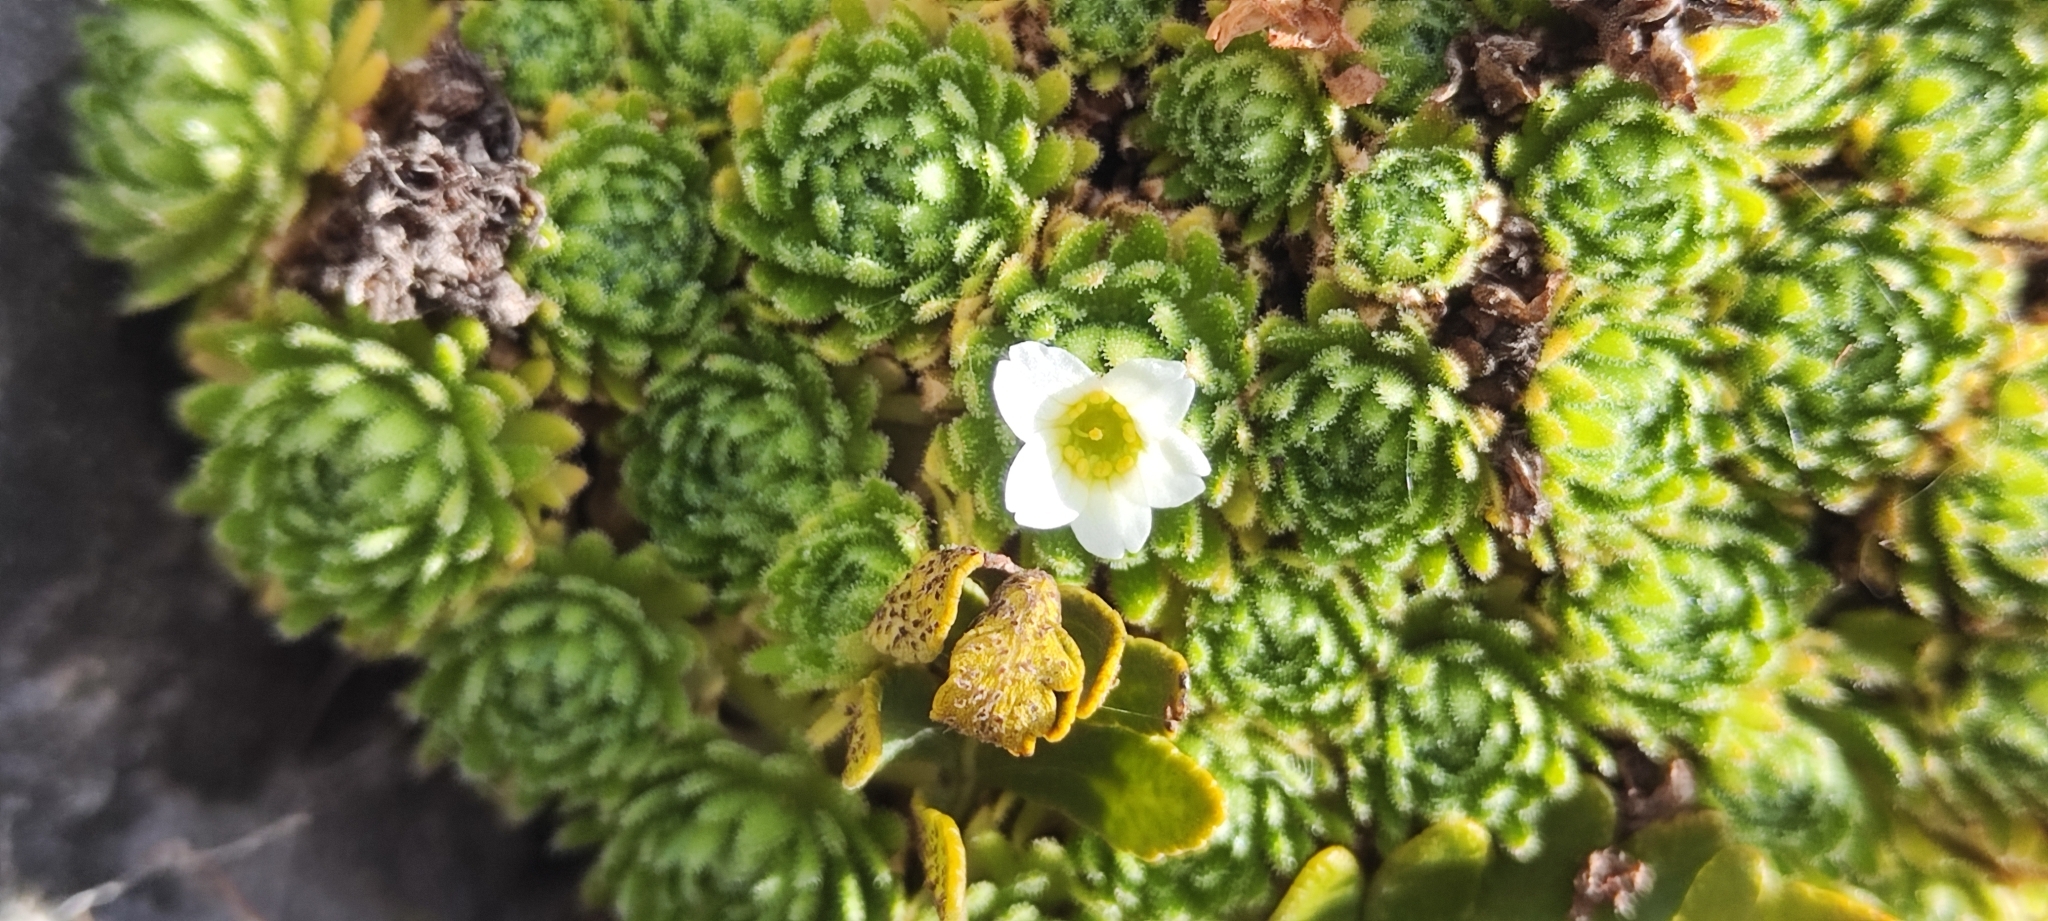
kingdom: Plantae
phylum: Tracheophyta
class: Magnoliopsida
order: Saxifragales
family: Saxifragaceae
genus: Saxifraga
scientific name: Saxifraga magellanica
